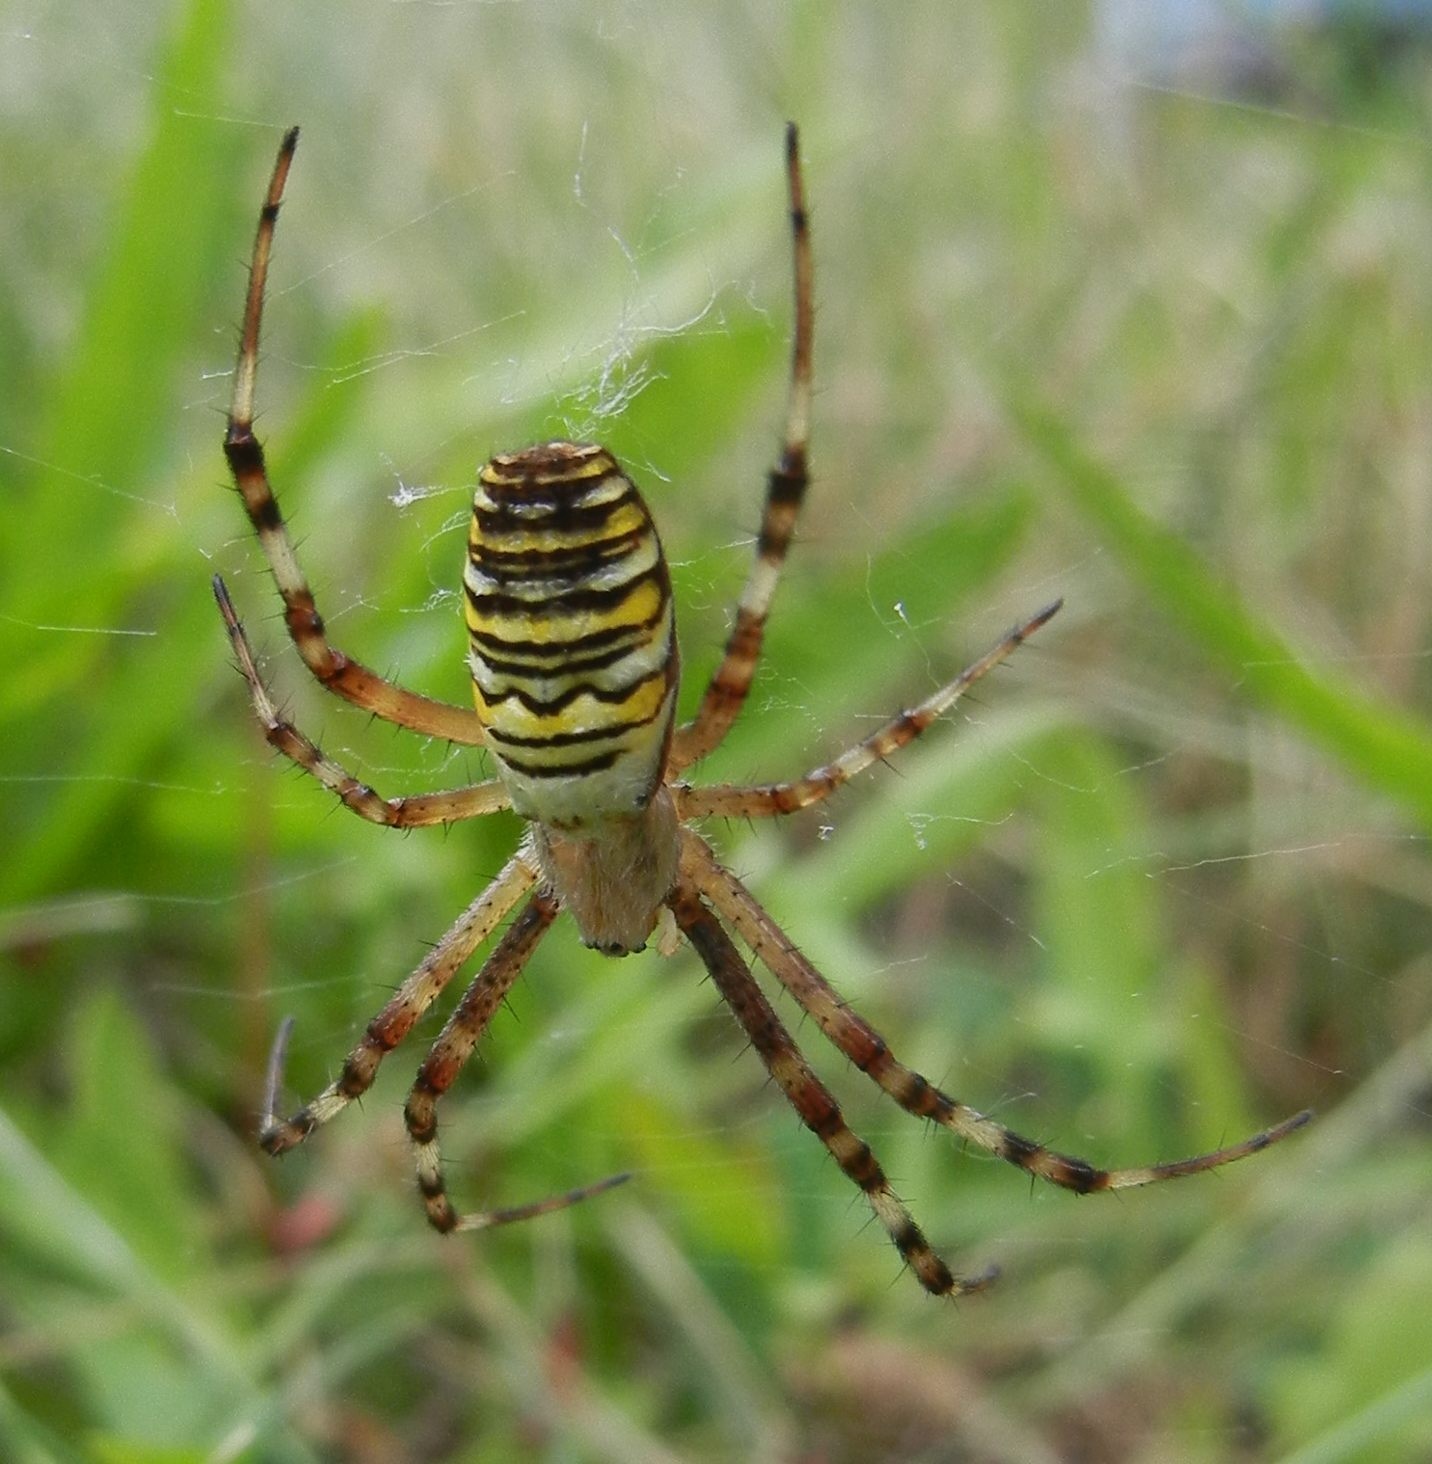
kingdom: Animalia
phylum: Arthropoda
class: Arachnida
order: Araneae
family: Araneidae
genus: Argiope
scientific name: Argiope bruennichi
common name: Wasp spider
